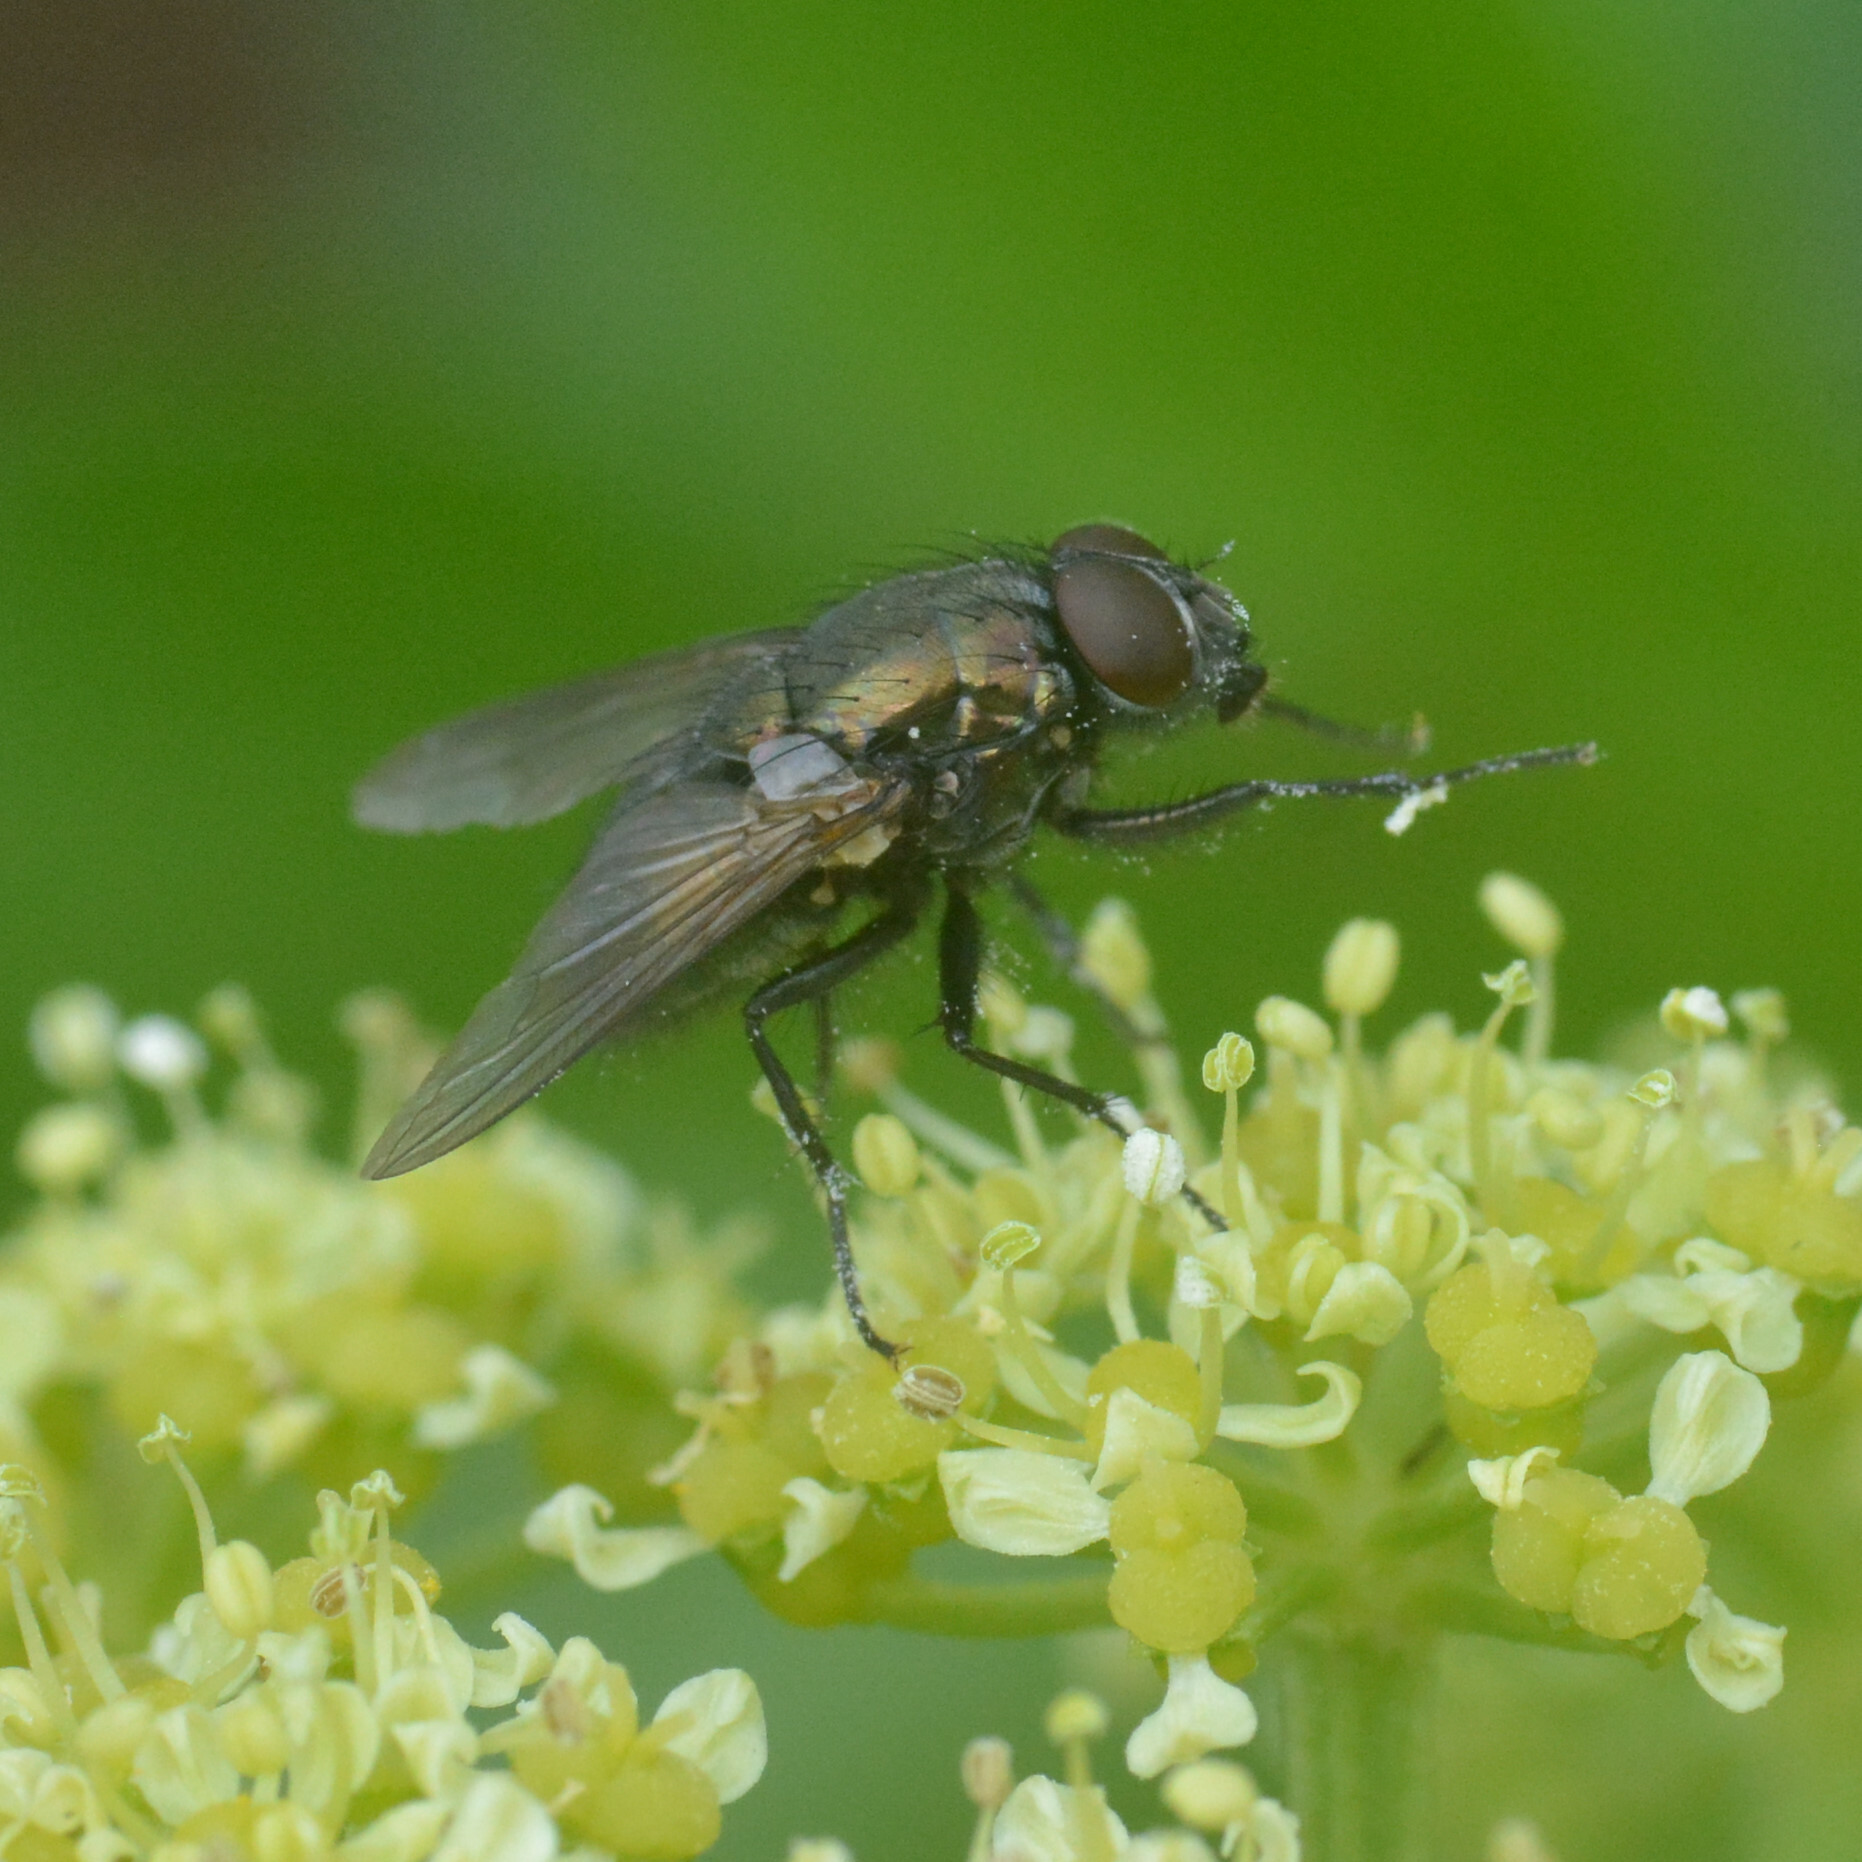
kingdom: Animalia
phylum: Arthropoda
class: Insecta
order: Diptera
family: Muscidae
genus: Dasyphora
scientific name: Dasyphora cyanella
